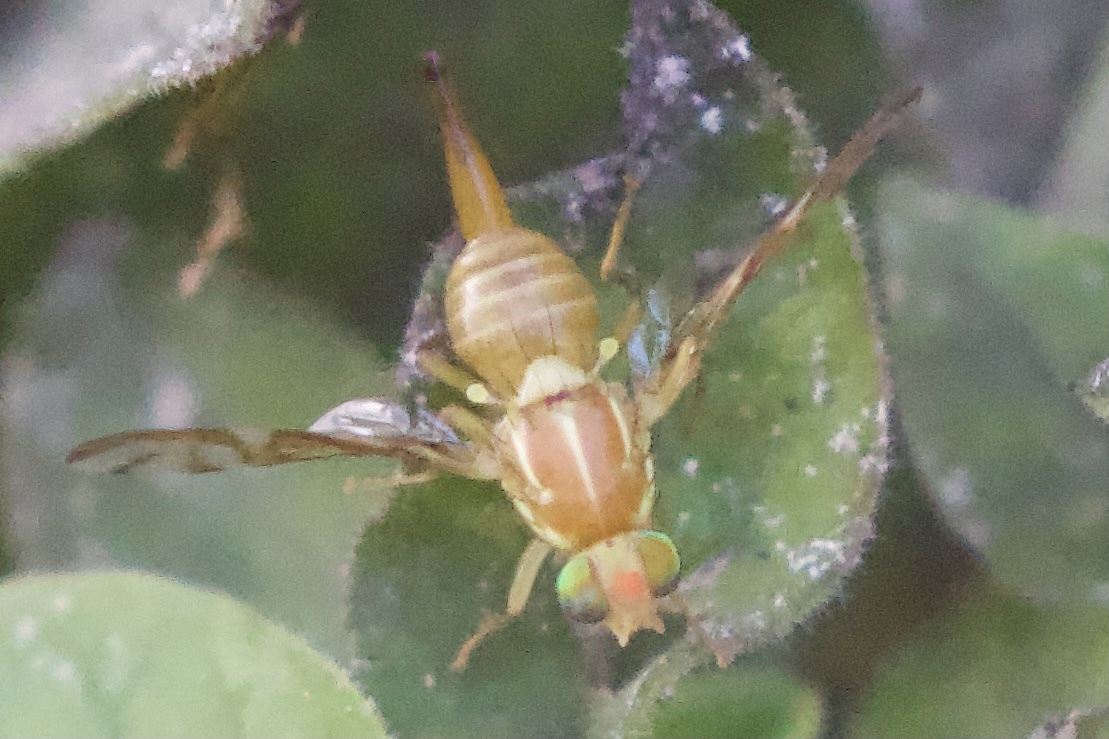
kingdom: Animalia
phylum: Arthropoda
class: Insecta
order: Diptera
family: Tephritidae
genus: Anastrepha
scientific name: Anastrepha ludens
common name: Mexican fruit fly
